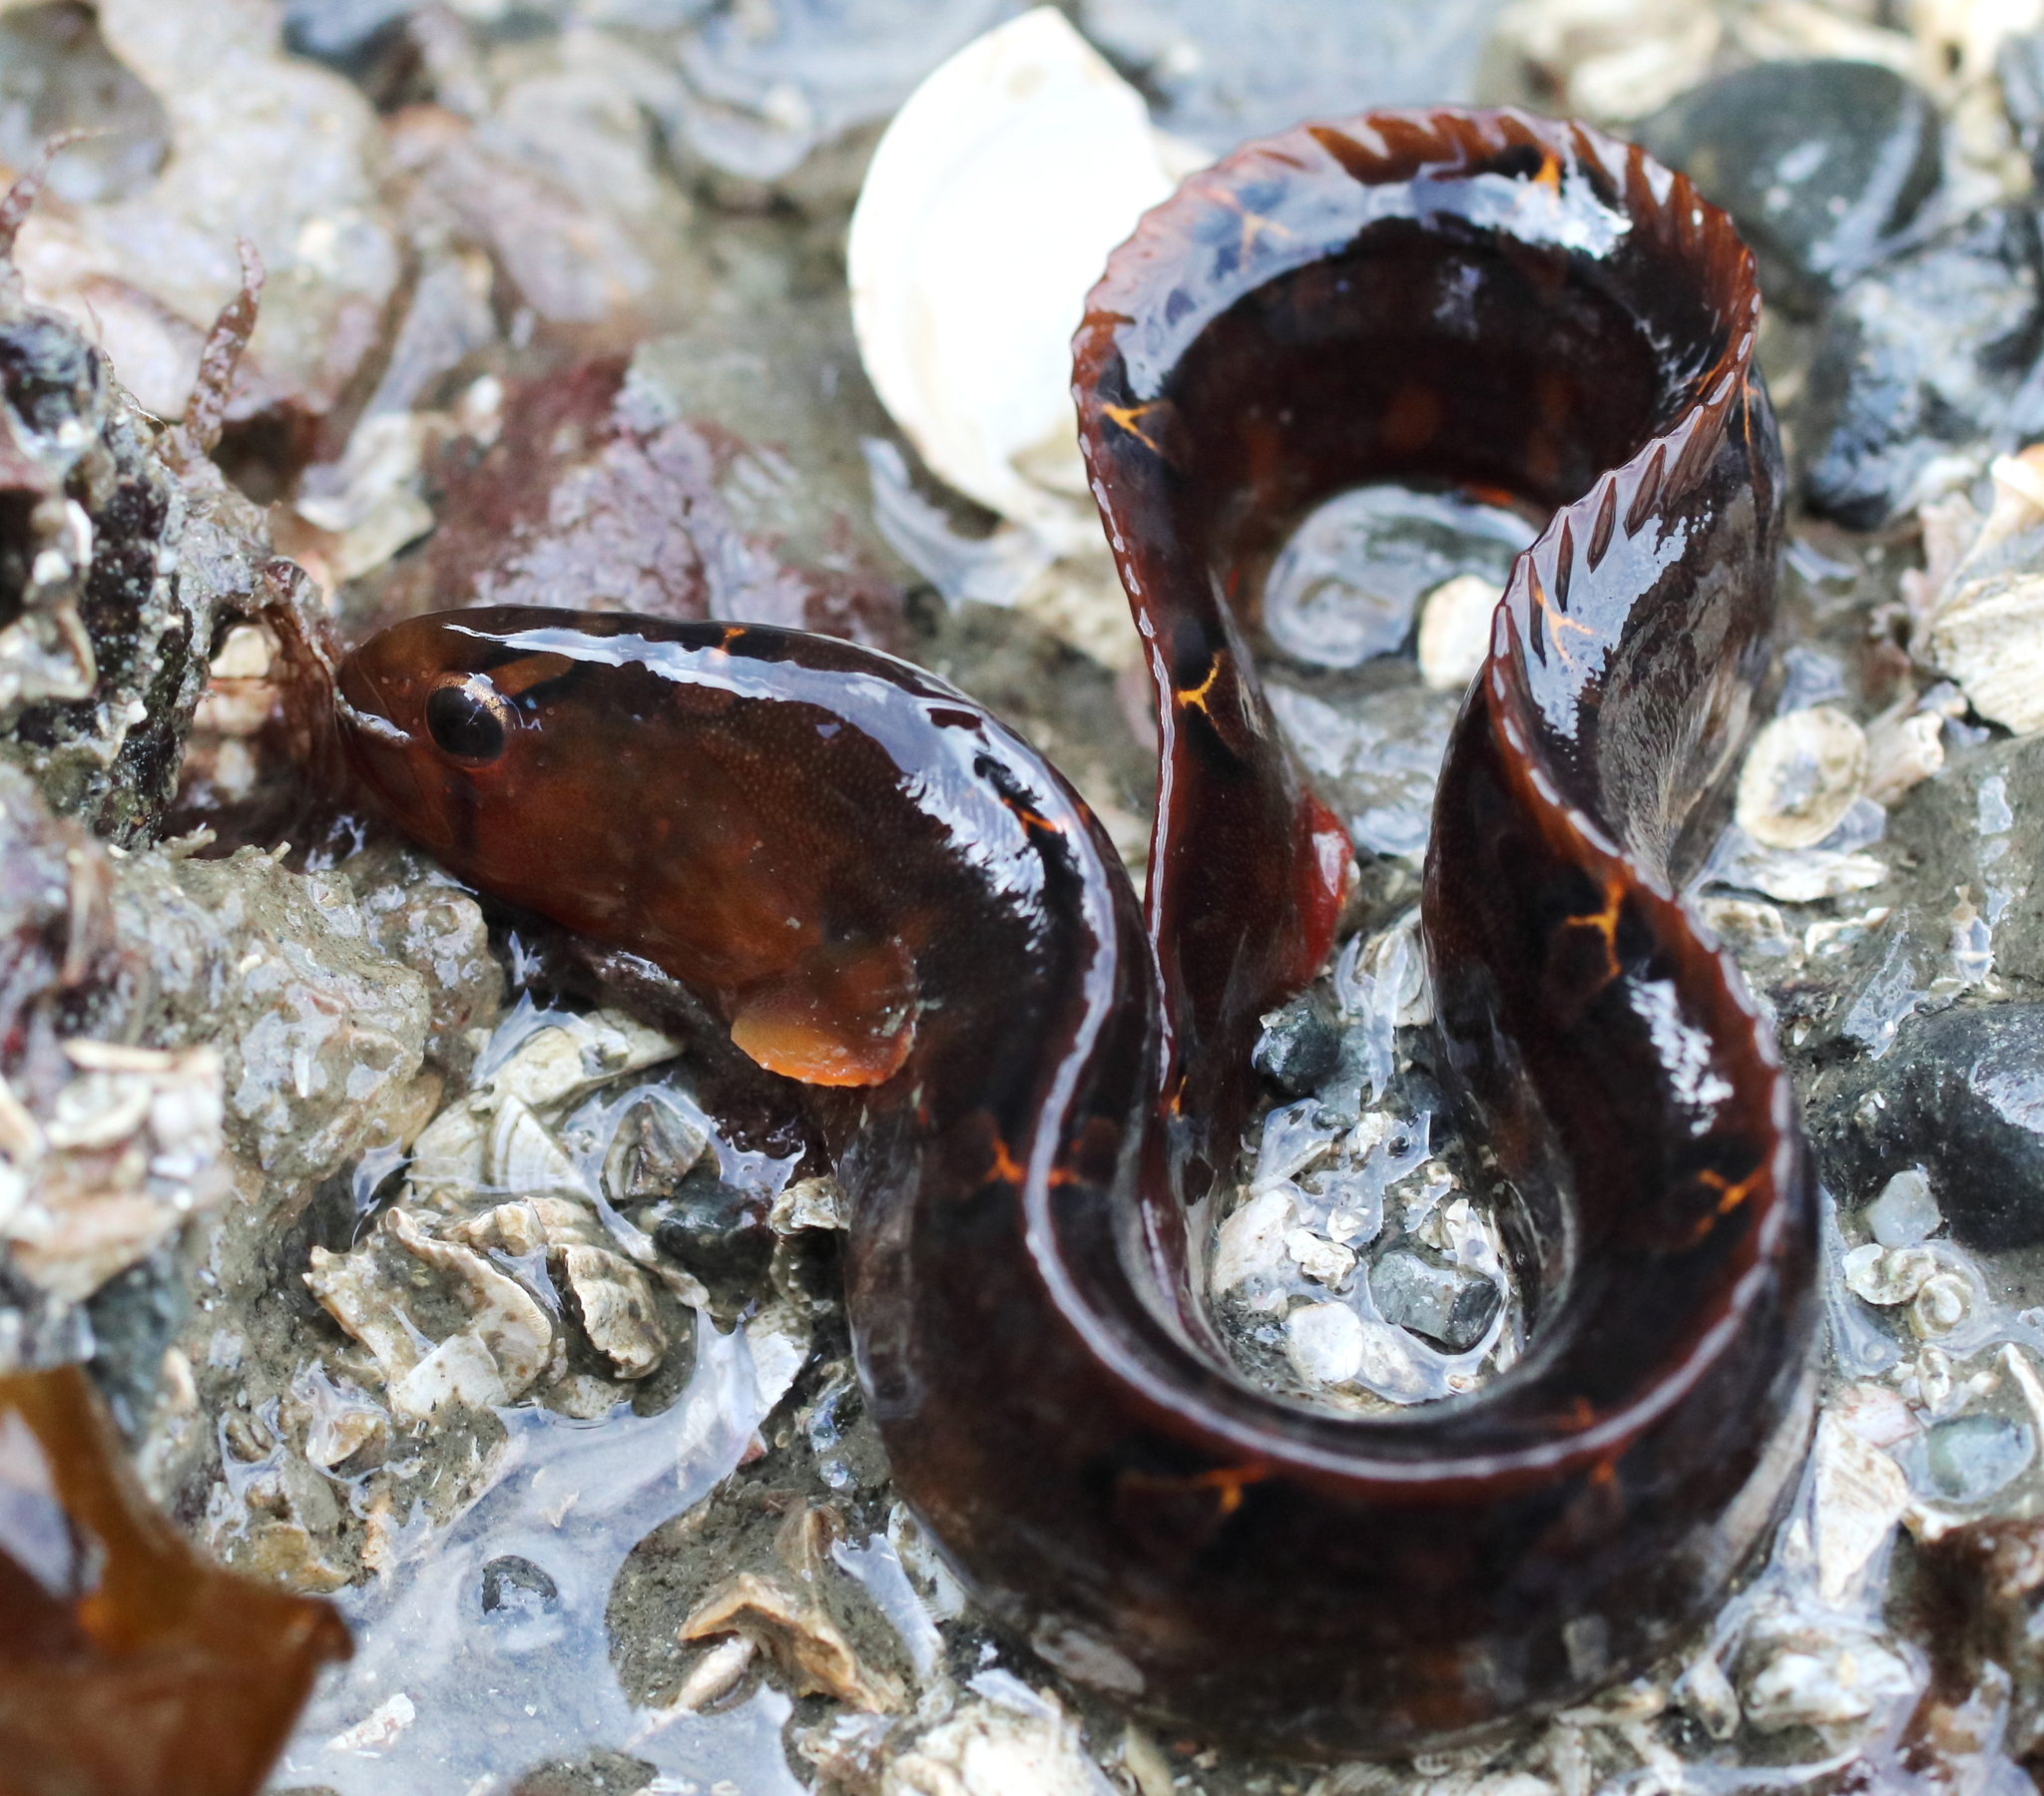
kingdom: Animalia
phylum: Chordata
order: Perciformes
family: Pholidae
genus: Pholis
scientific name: Pholis laeta
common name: Crescent gunnel
